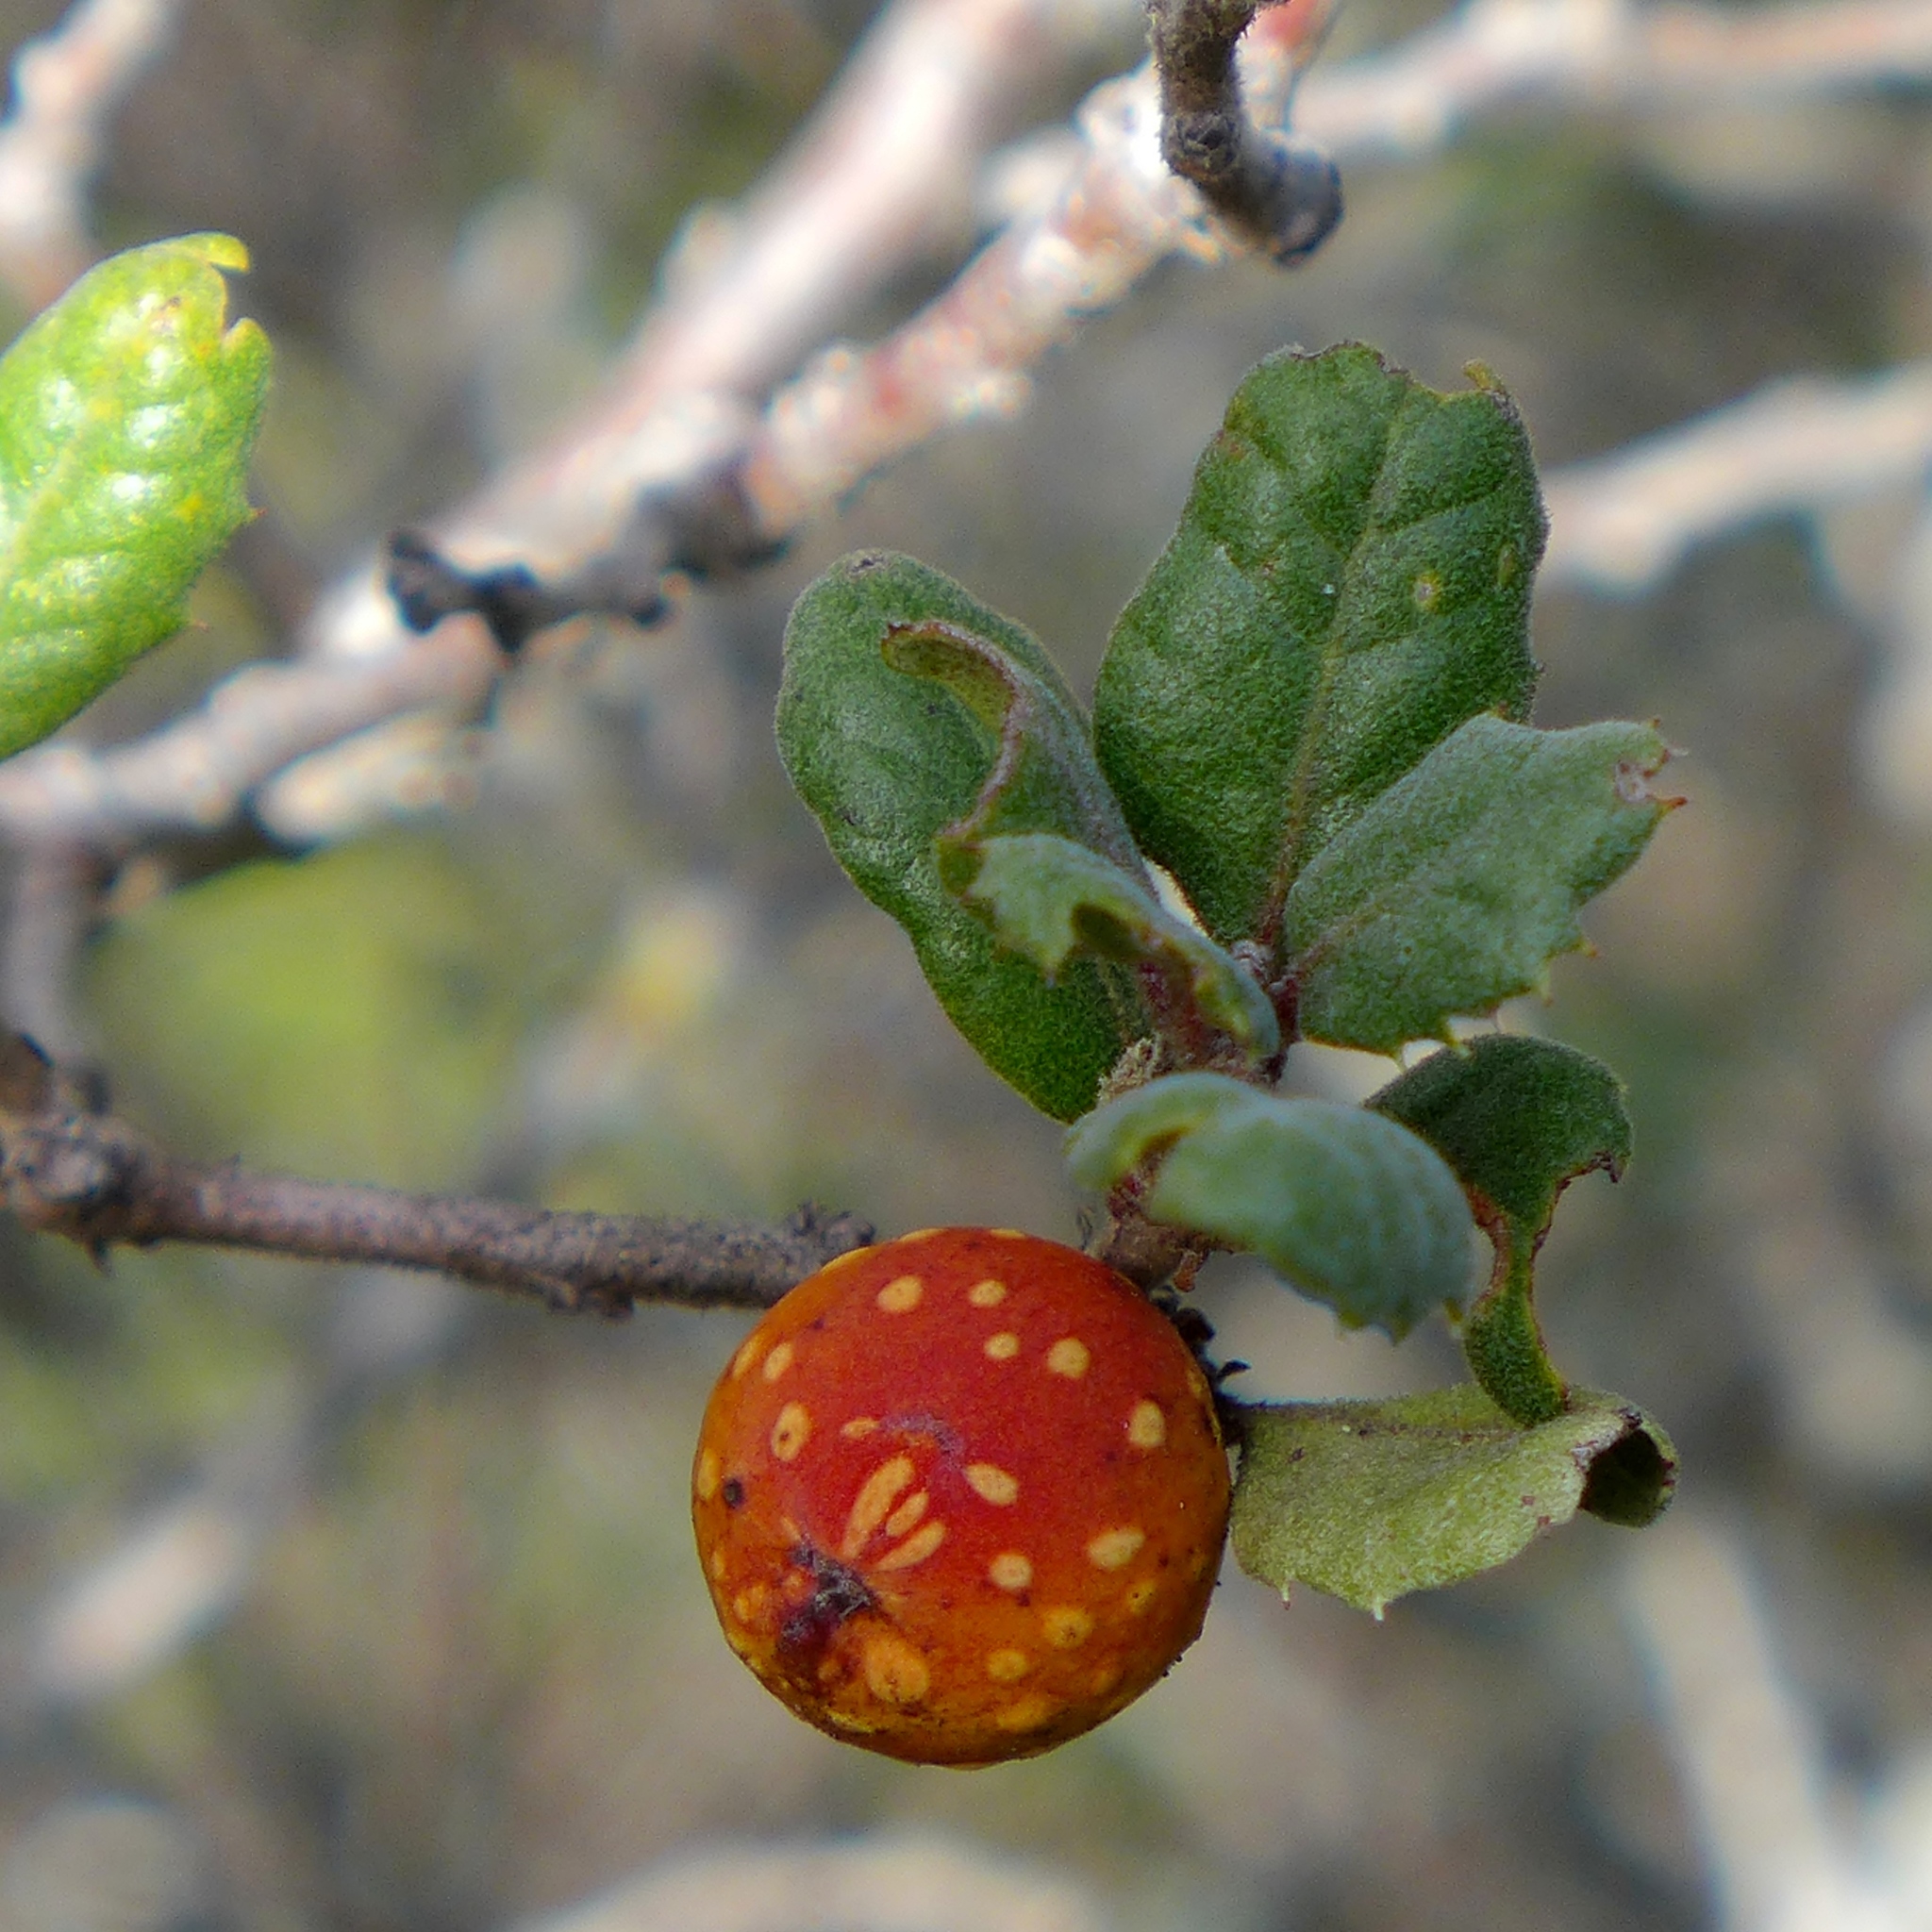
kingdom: Animalia
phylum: Arthropoda
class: Insecta
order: Hymenoptera
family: Cynipidae
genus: Burnettweldia
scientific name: Burnettweldia
